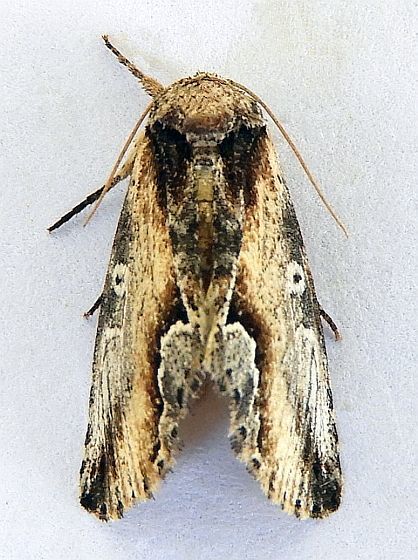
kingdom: Animalia
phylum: Arthropoda
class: Insecta
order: Lepidoptera
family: Noctuidae
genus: Prothrinax
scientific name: Prothrinax luteomedia
